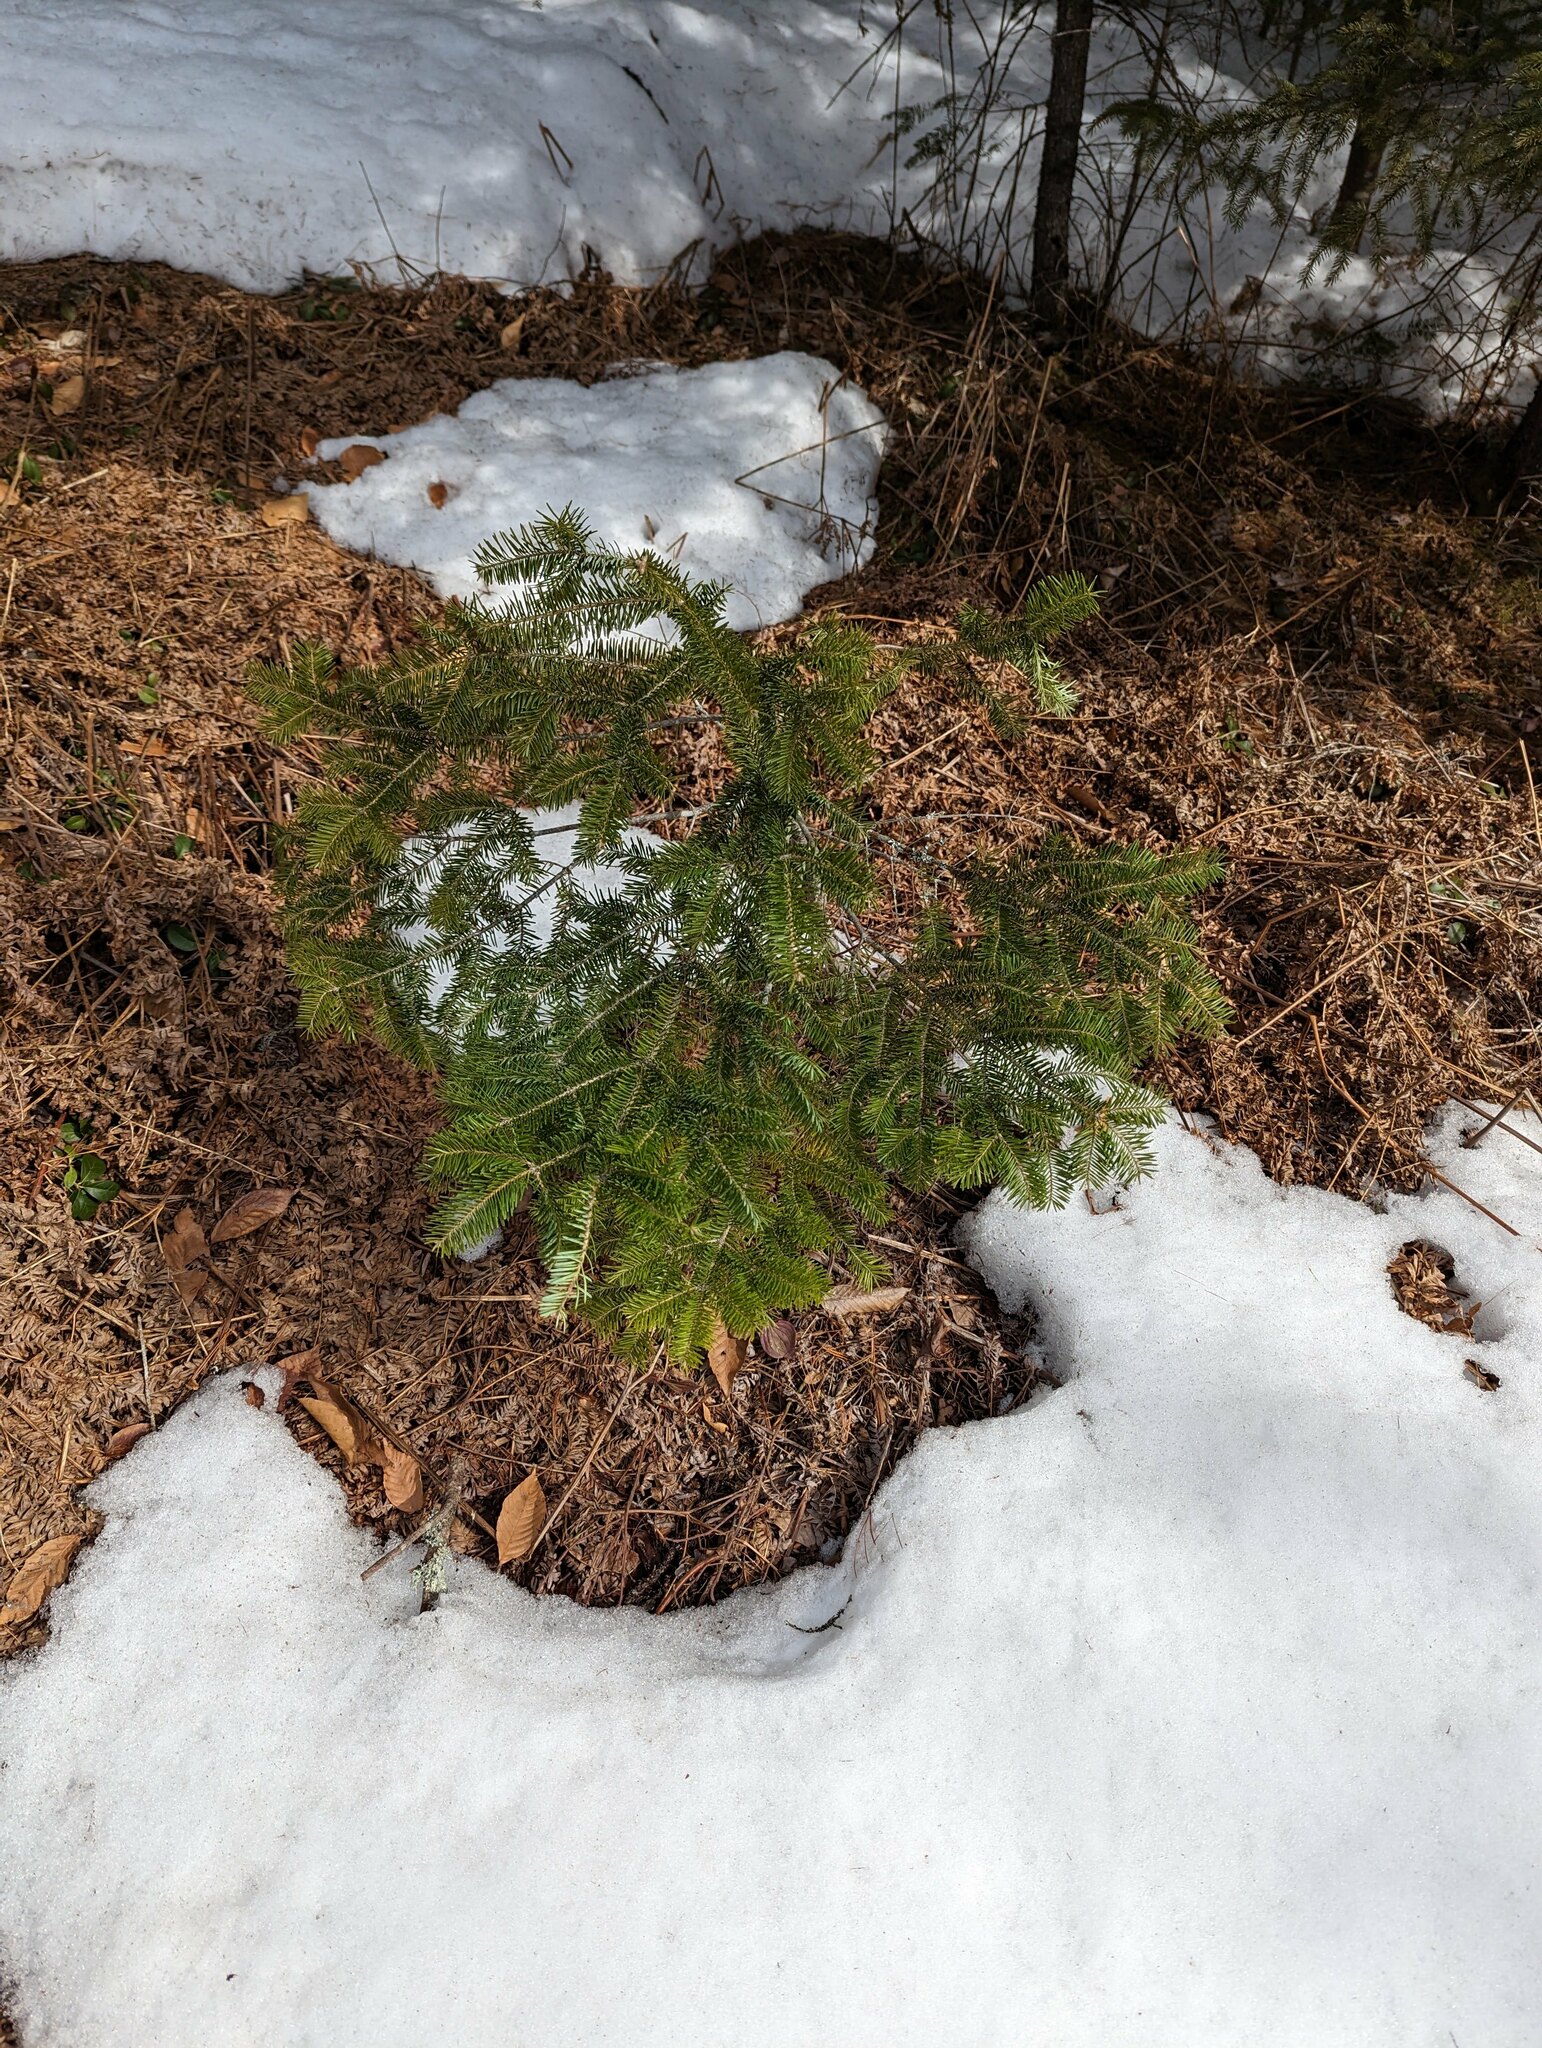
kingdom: Plantae
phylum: Tracheophyta
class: Pinopsida
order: Pinales
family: Pinaceae
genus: Abies
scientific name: Abies balsamea
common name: Balsam fir
